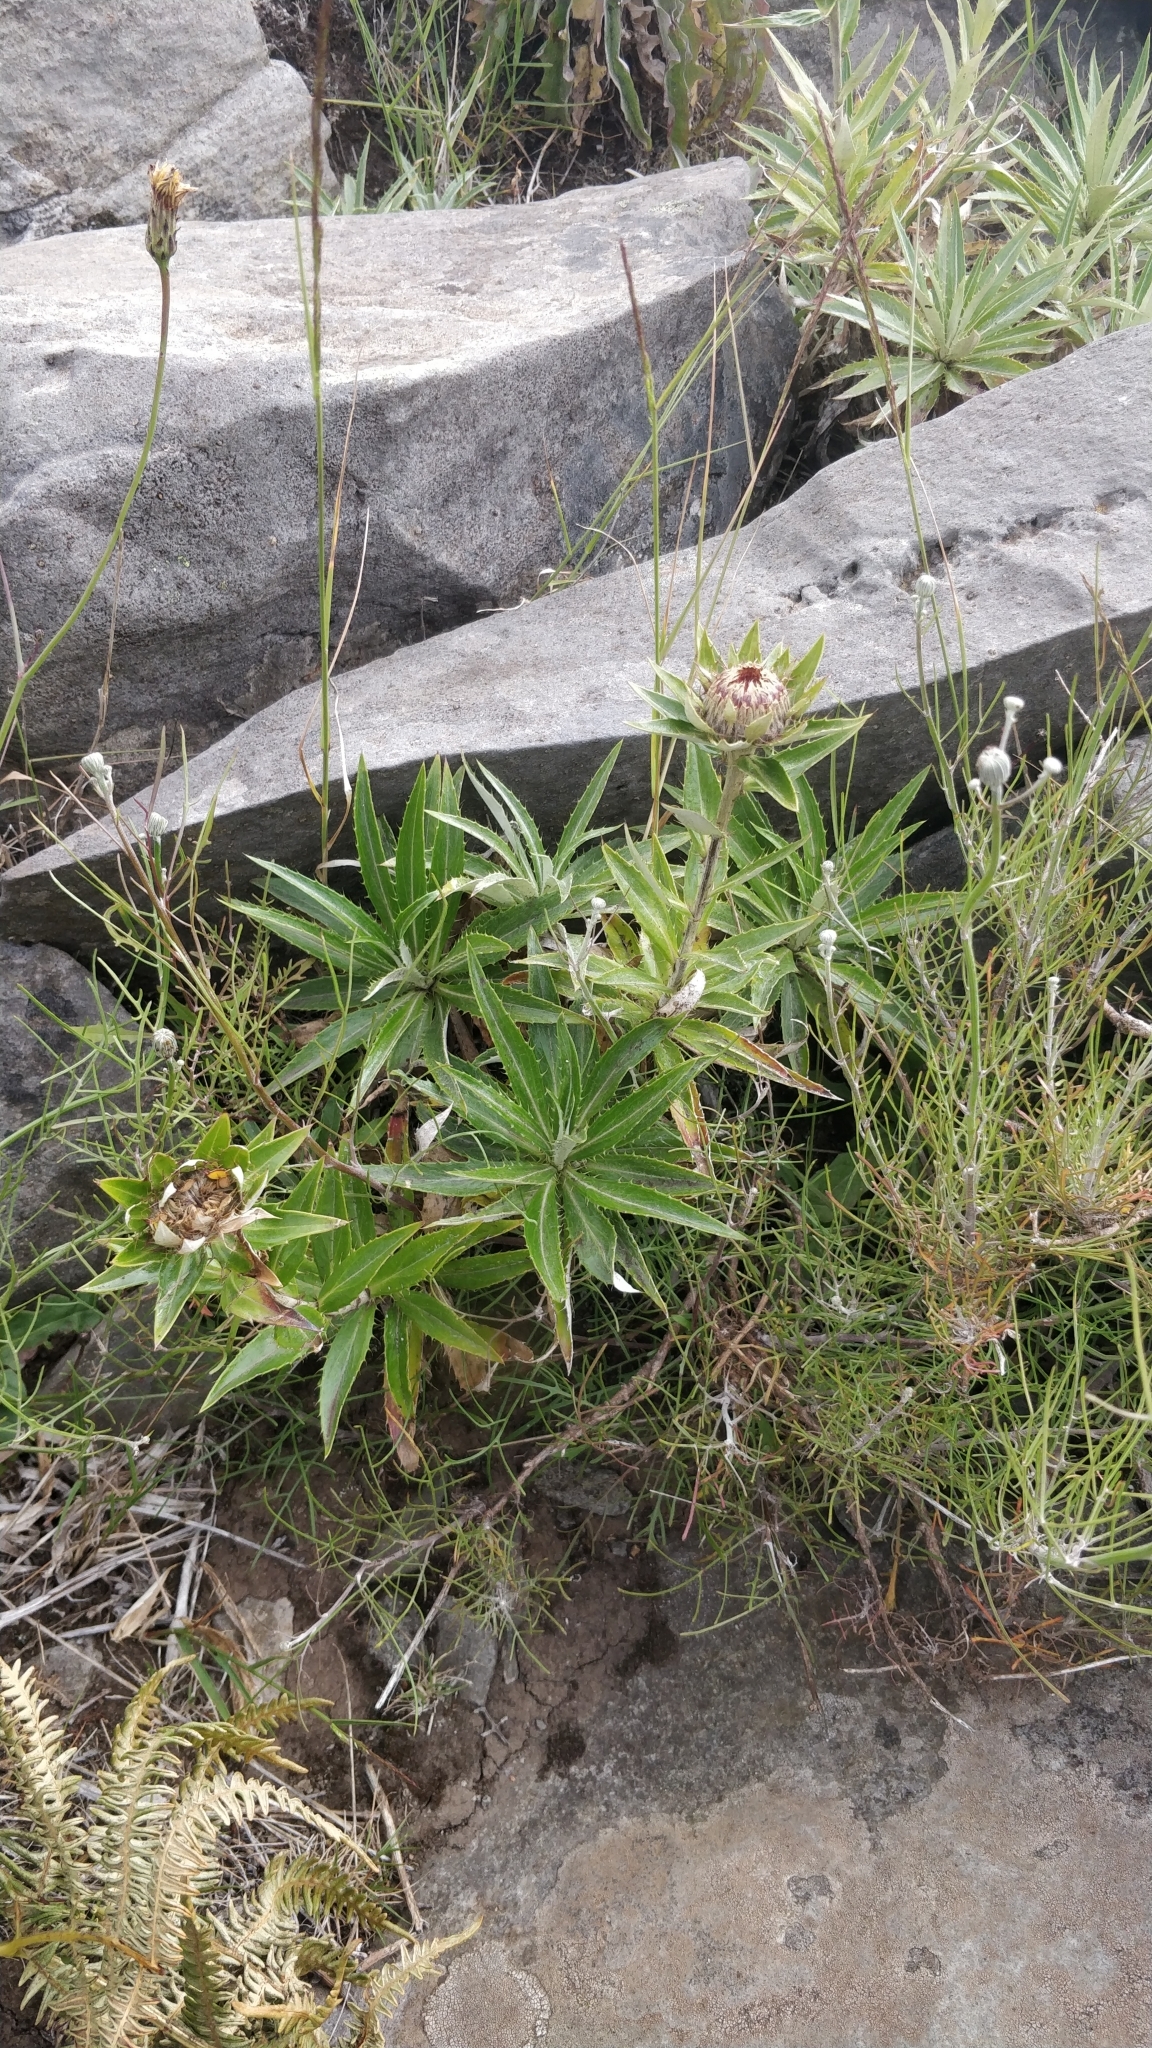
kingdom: Plantae
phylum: Tracheophyta
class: Magnoliopsida
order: Asterales
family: Asteraceae
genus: Carlina
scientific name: Carlina salicifolia
